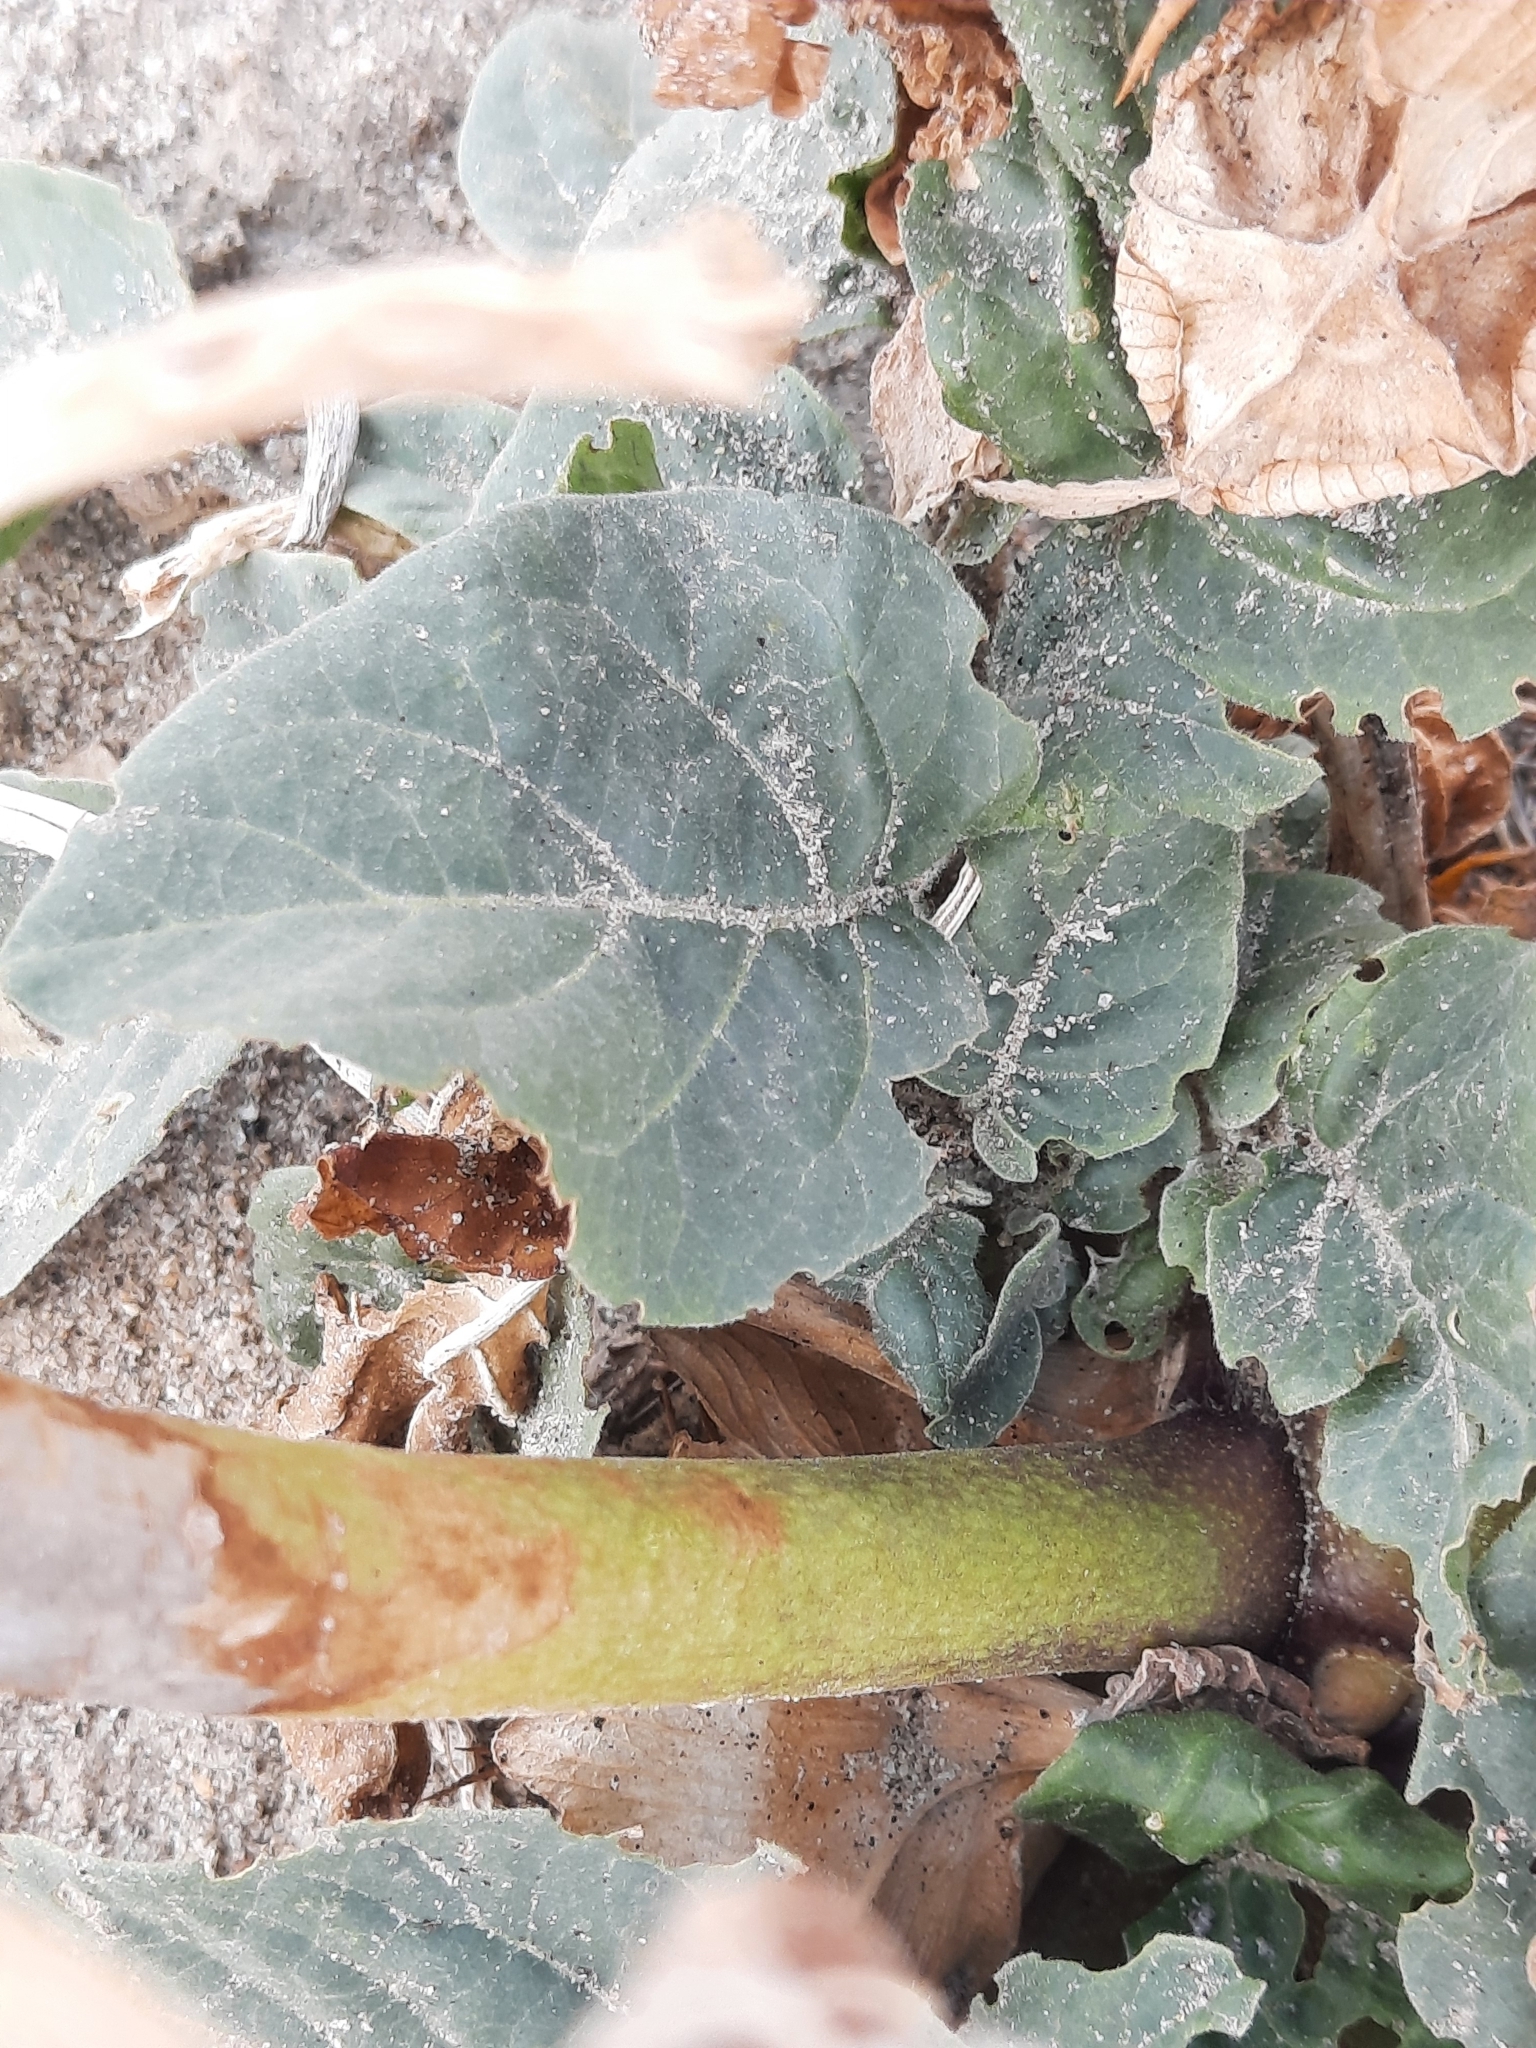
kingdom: Plantae
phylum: Tracheophyta
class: Magnoliopsida
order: Solanales
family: Solanaceae
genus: Datura
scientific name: Datura discolor
